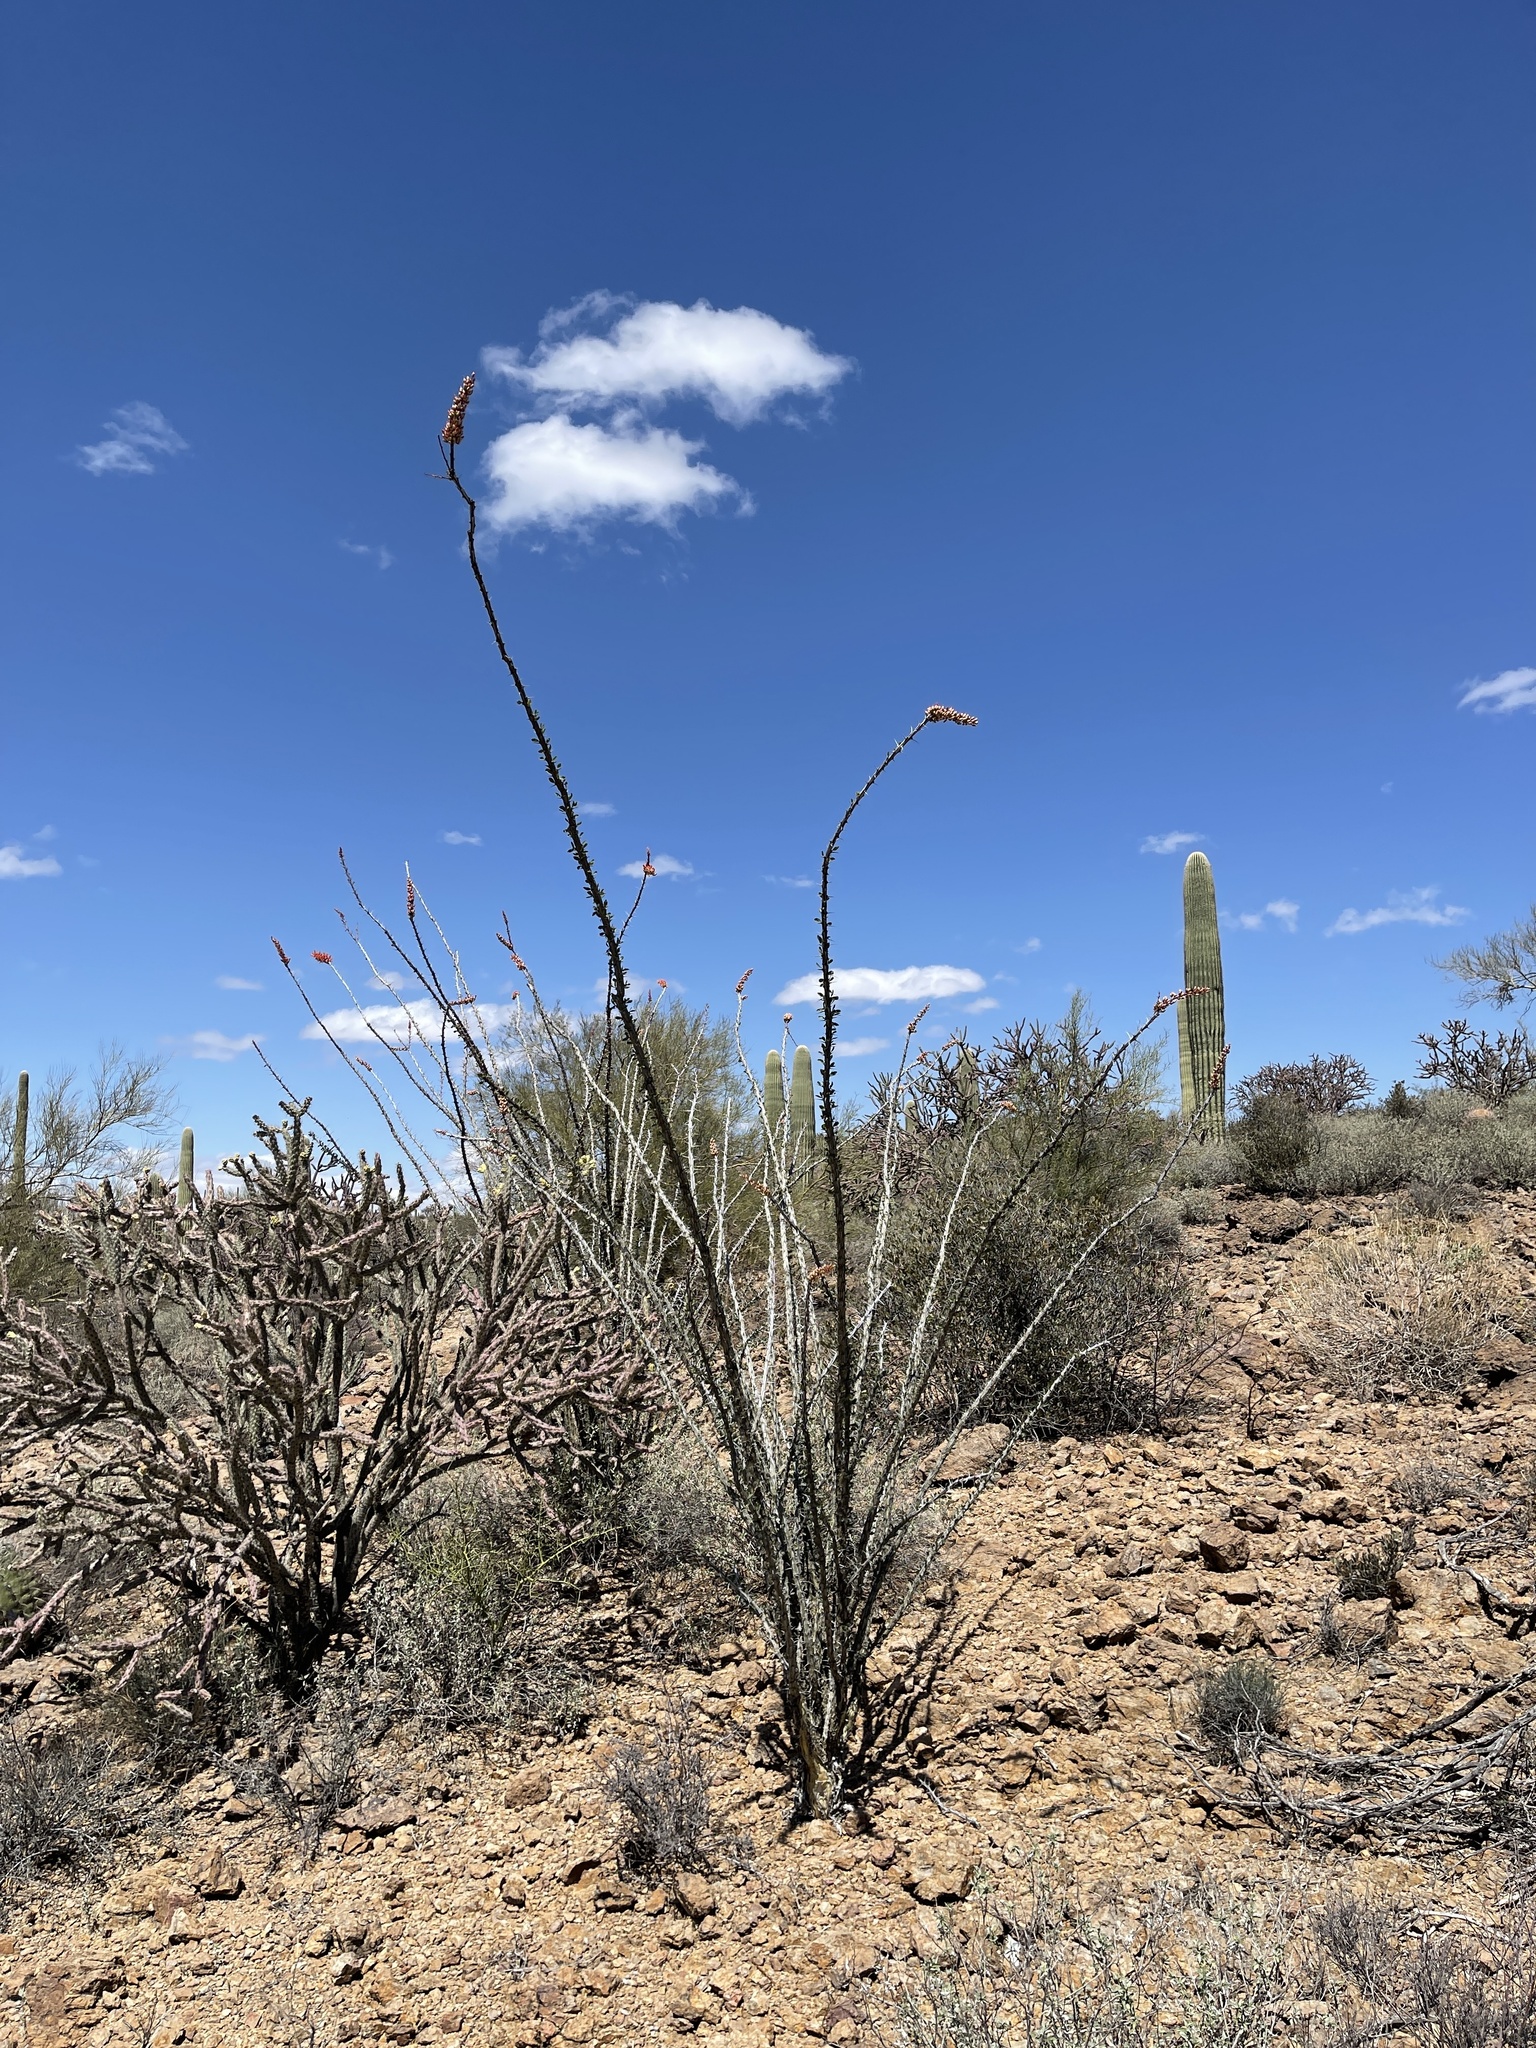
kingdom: Plantae
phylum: Tracheophyta
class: Magnoliopsida
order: Ericales
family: Fouquieriaceae
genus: Fouquieria
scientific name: Fouquieria splendens
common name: Vine-cactus
